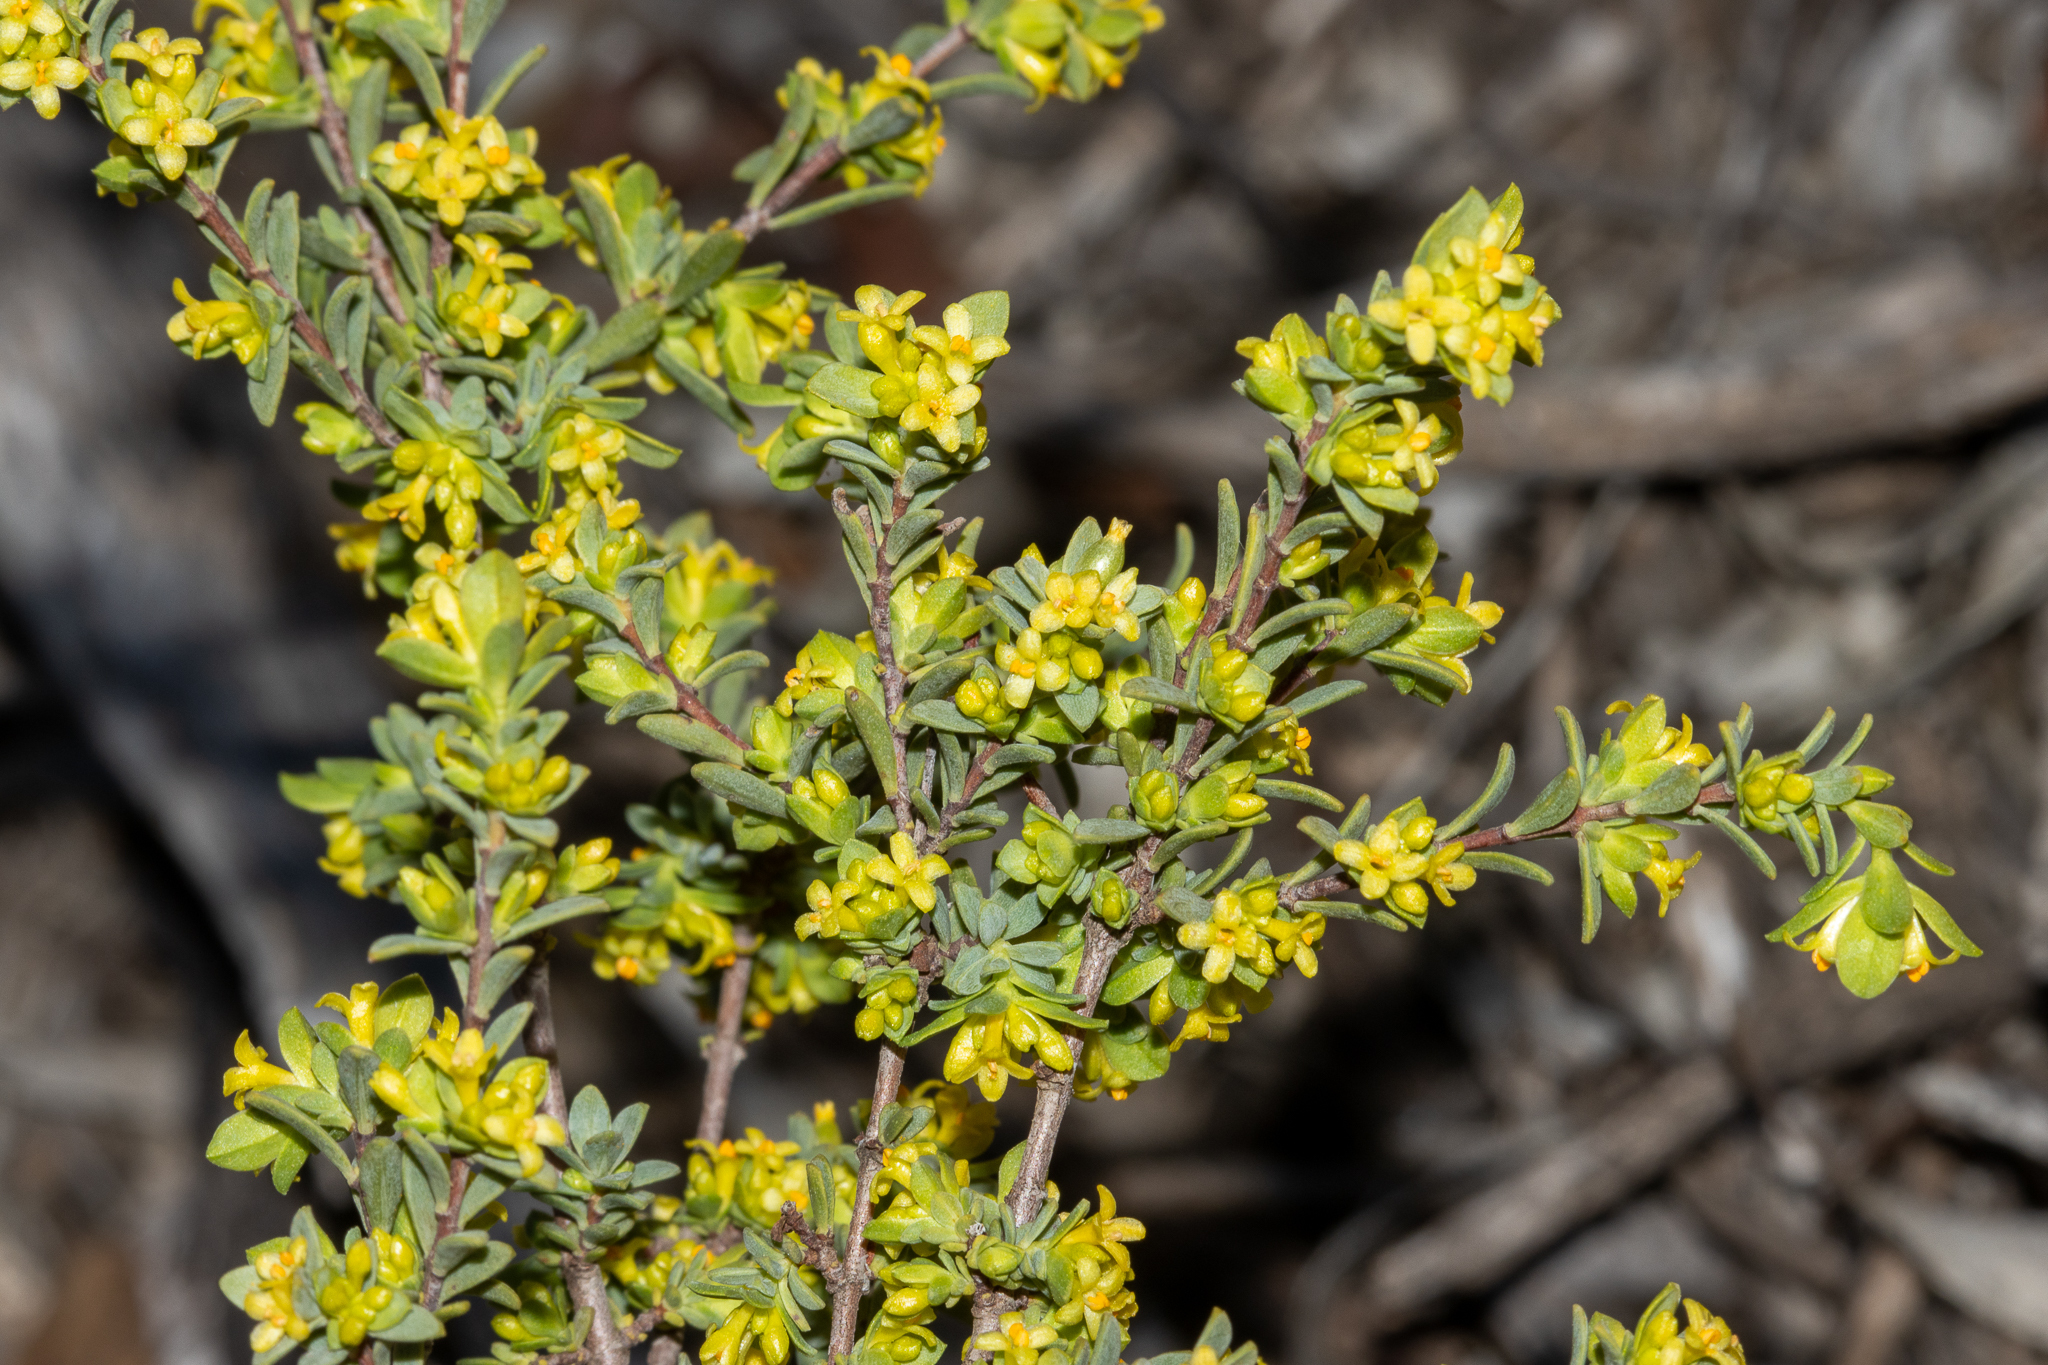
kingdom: Plantae
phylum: Tracheophyta
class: Magnoliopsida
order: Malvales
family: Thymelaeaceae
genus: Pimelea
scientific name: Pimelea serpyllifolia
